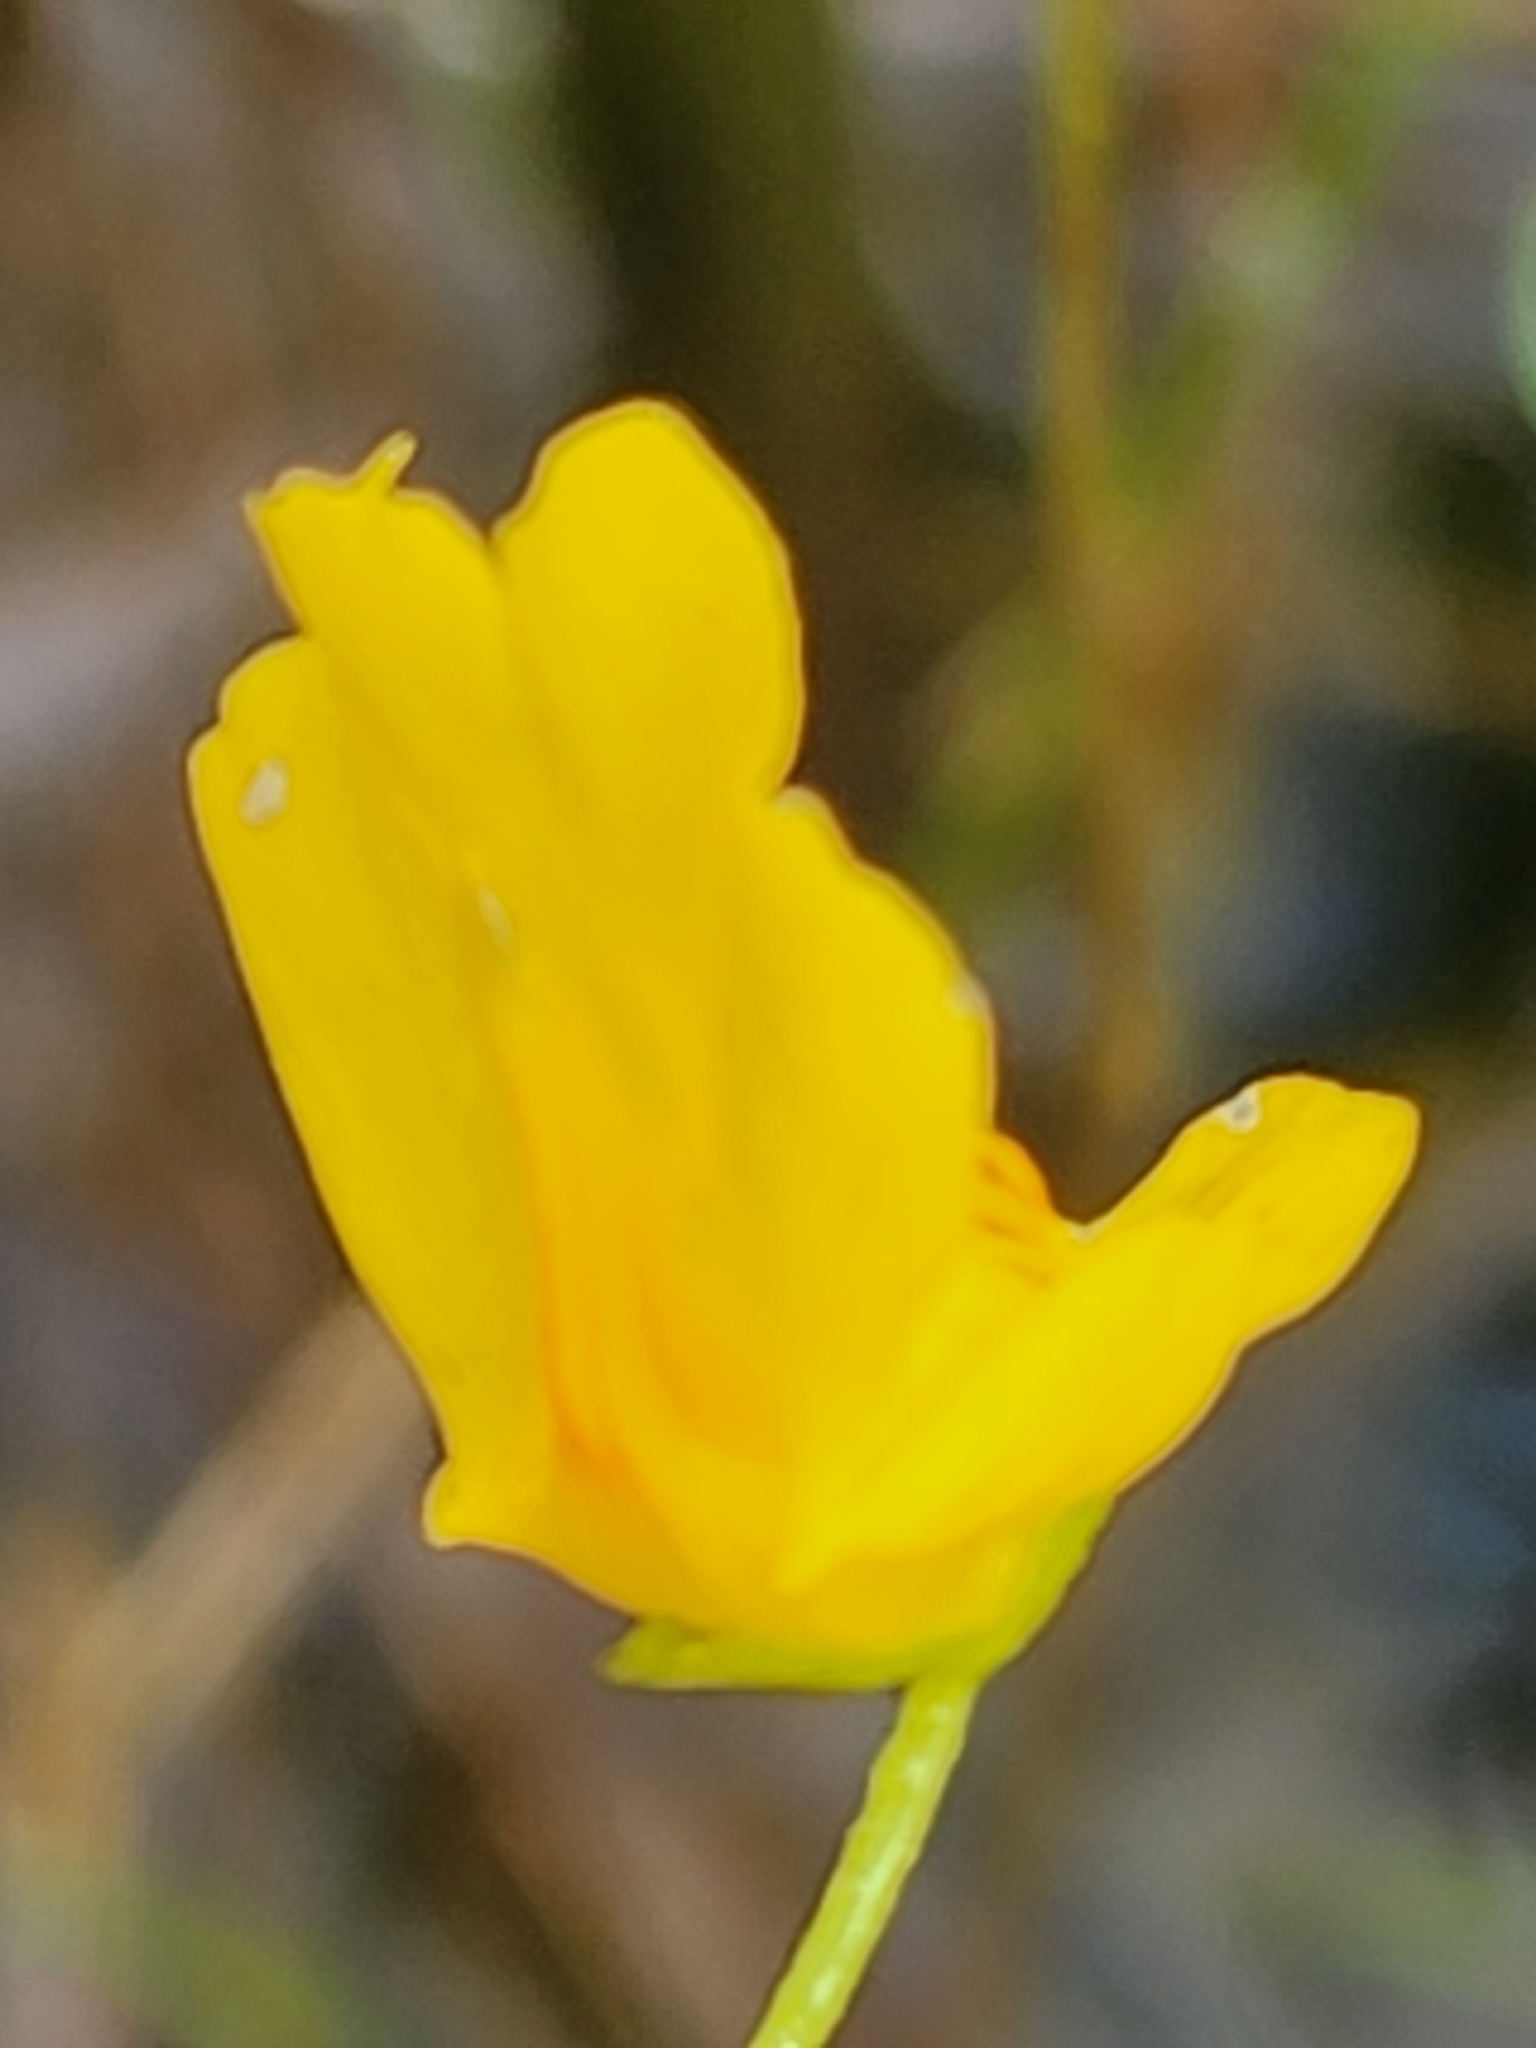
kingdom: Plantae
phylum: Tracheophyta
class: Magnoliopsida
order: Lamiales
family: Lentibulariaceae
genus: Utricularia
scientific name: Utricularia intermedia
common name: Intermediate bladderwort
